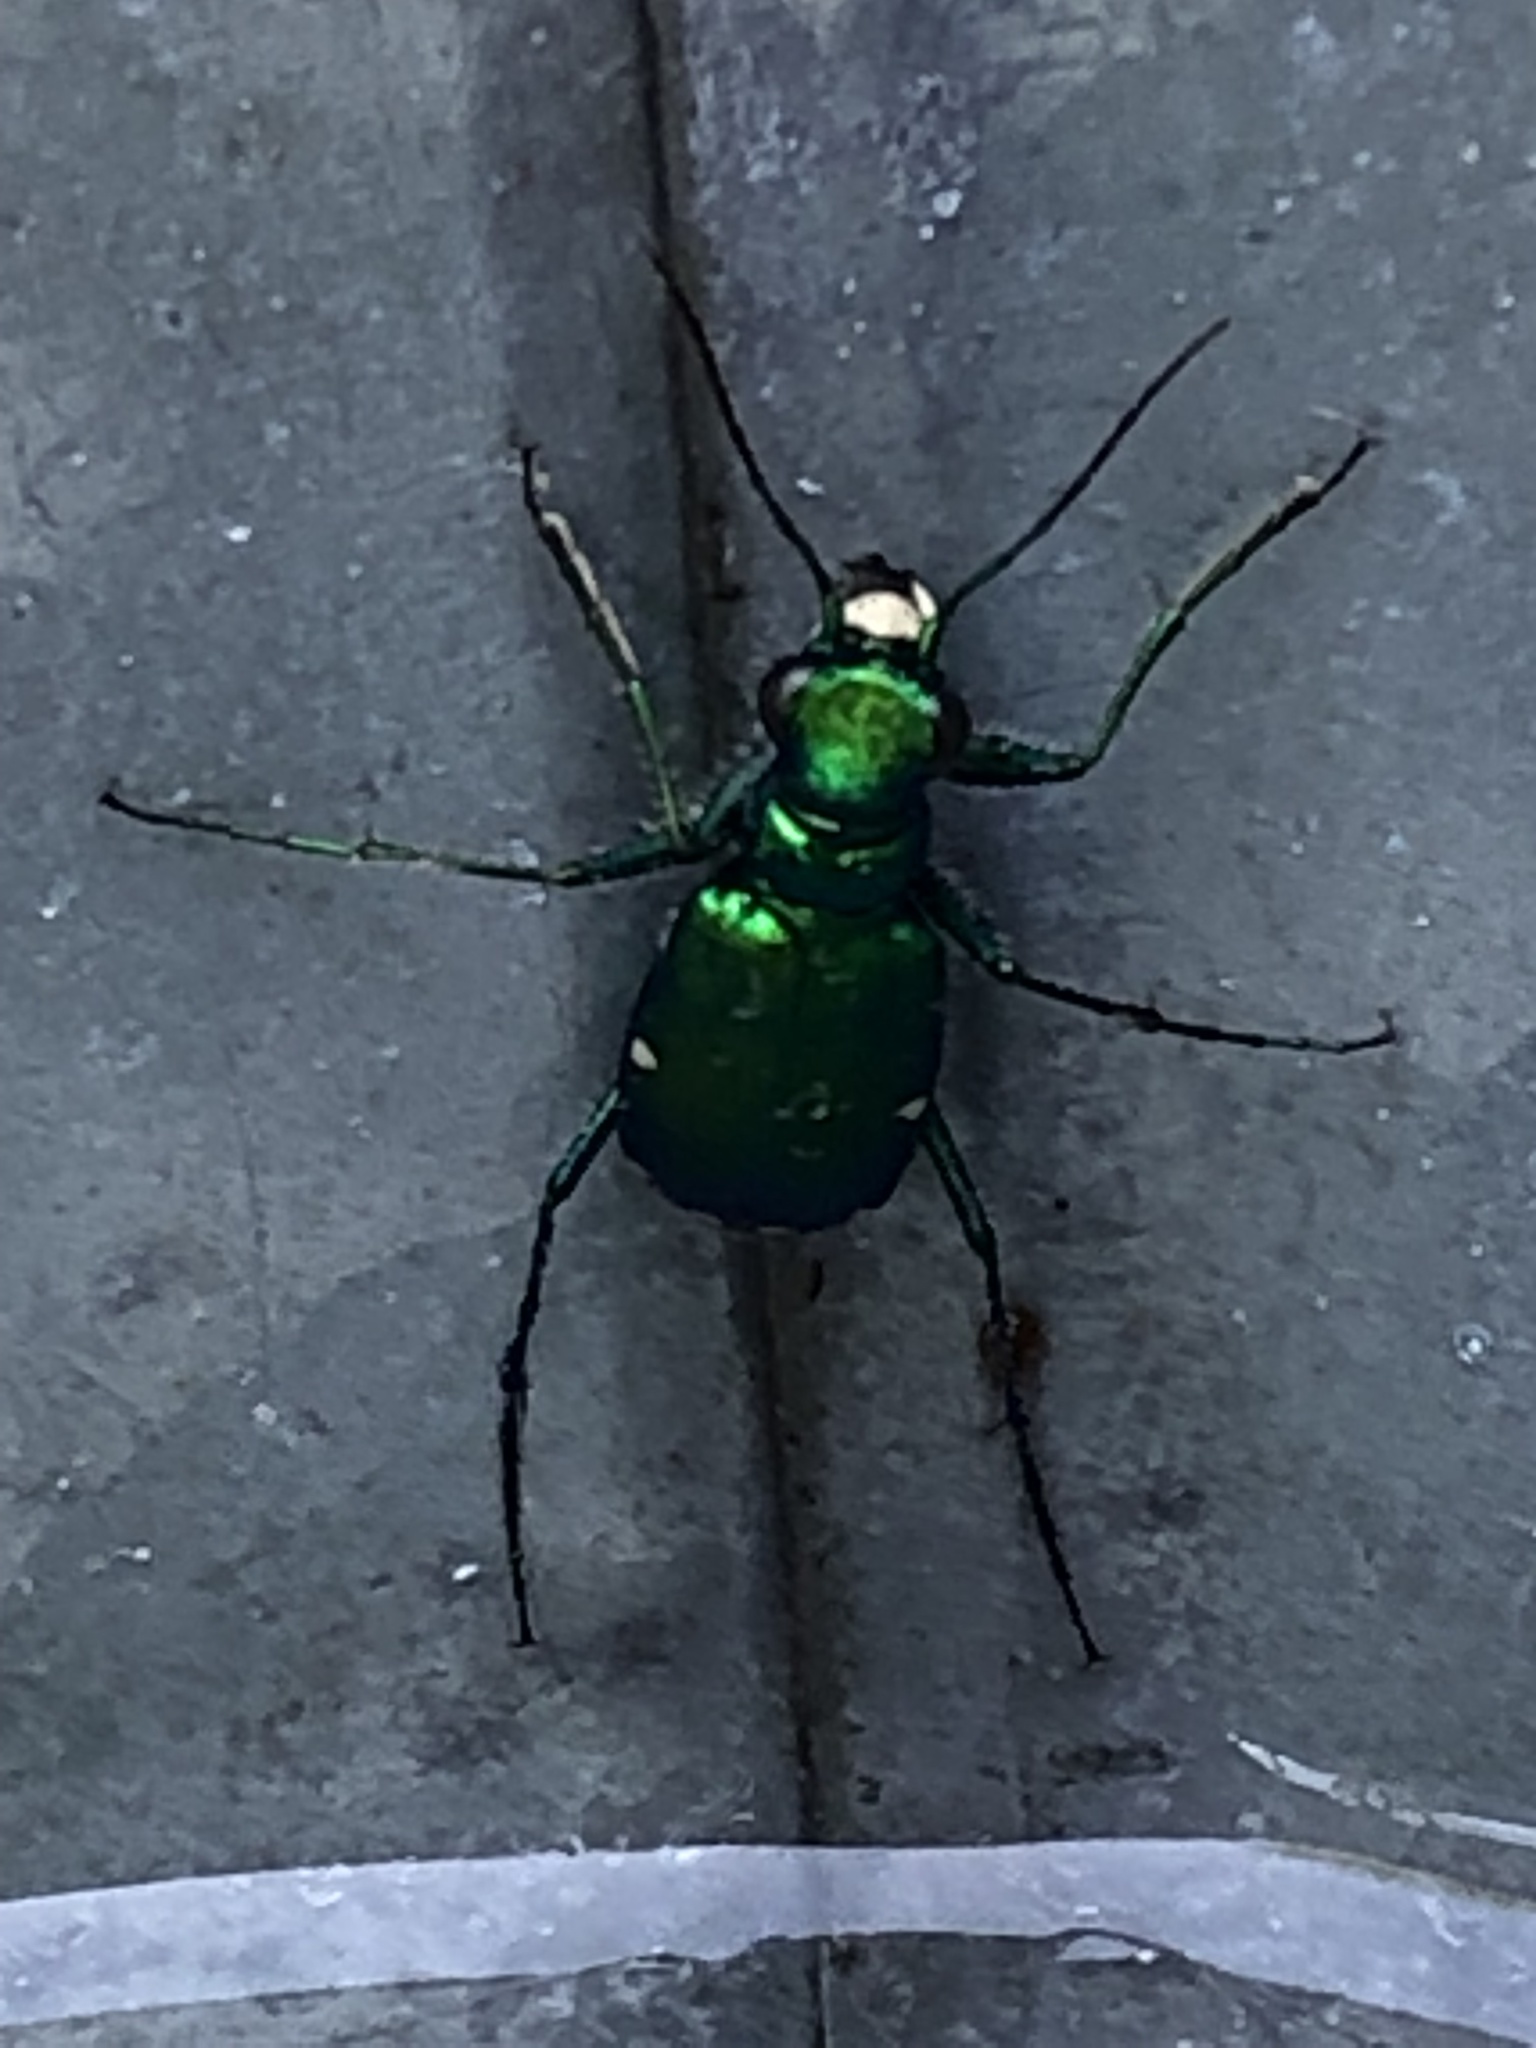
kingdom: Animalia
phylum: Arthropoda
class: Insecta
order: Coleoptera
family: Carabidae
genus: Cicindela
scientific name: Cicindela sexguttata
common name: Six-spotted tiger beetle
